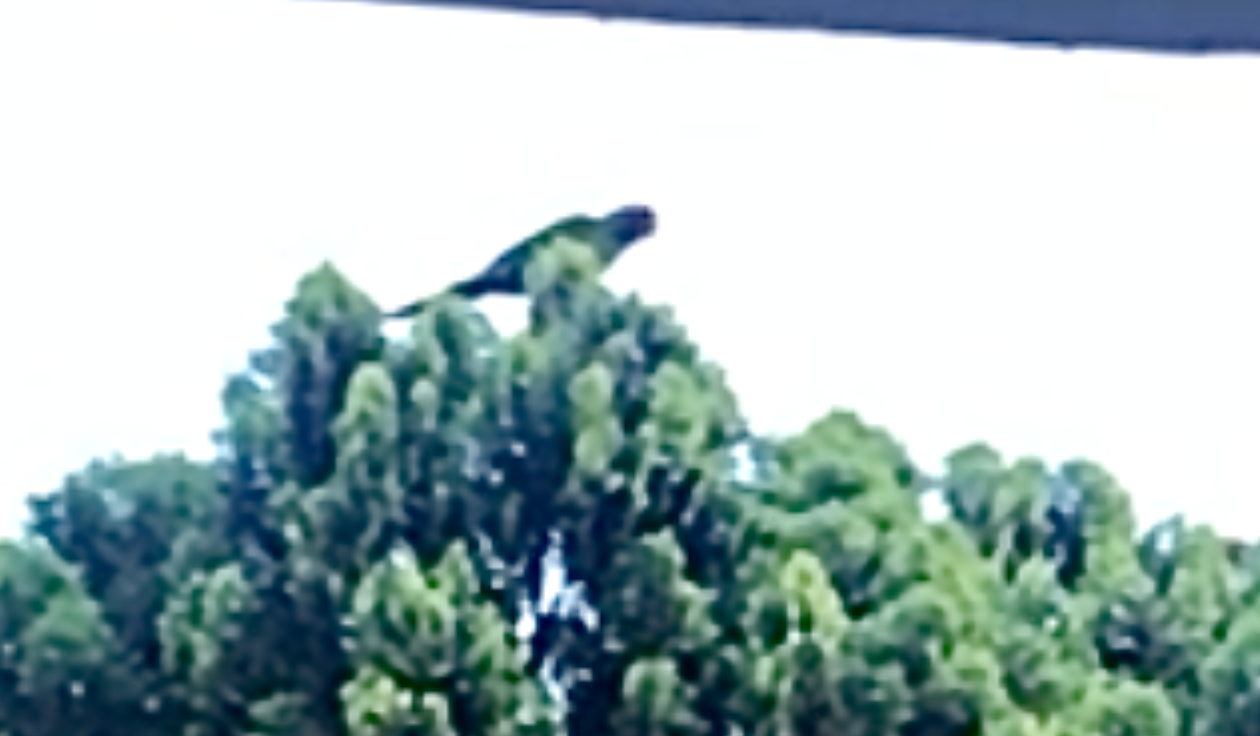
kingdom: Animalia
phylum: Chordata
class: Aves
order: Psittaciformes
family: Psittacidae
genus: Aratinga
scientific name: Aratinga erythrogenys
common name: Red-masked parakeet
